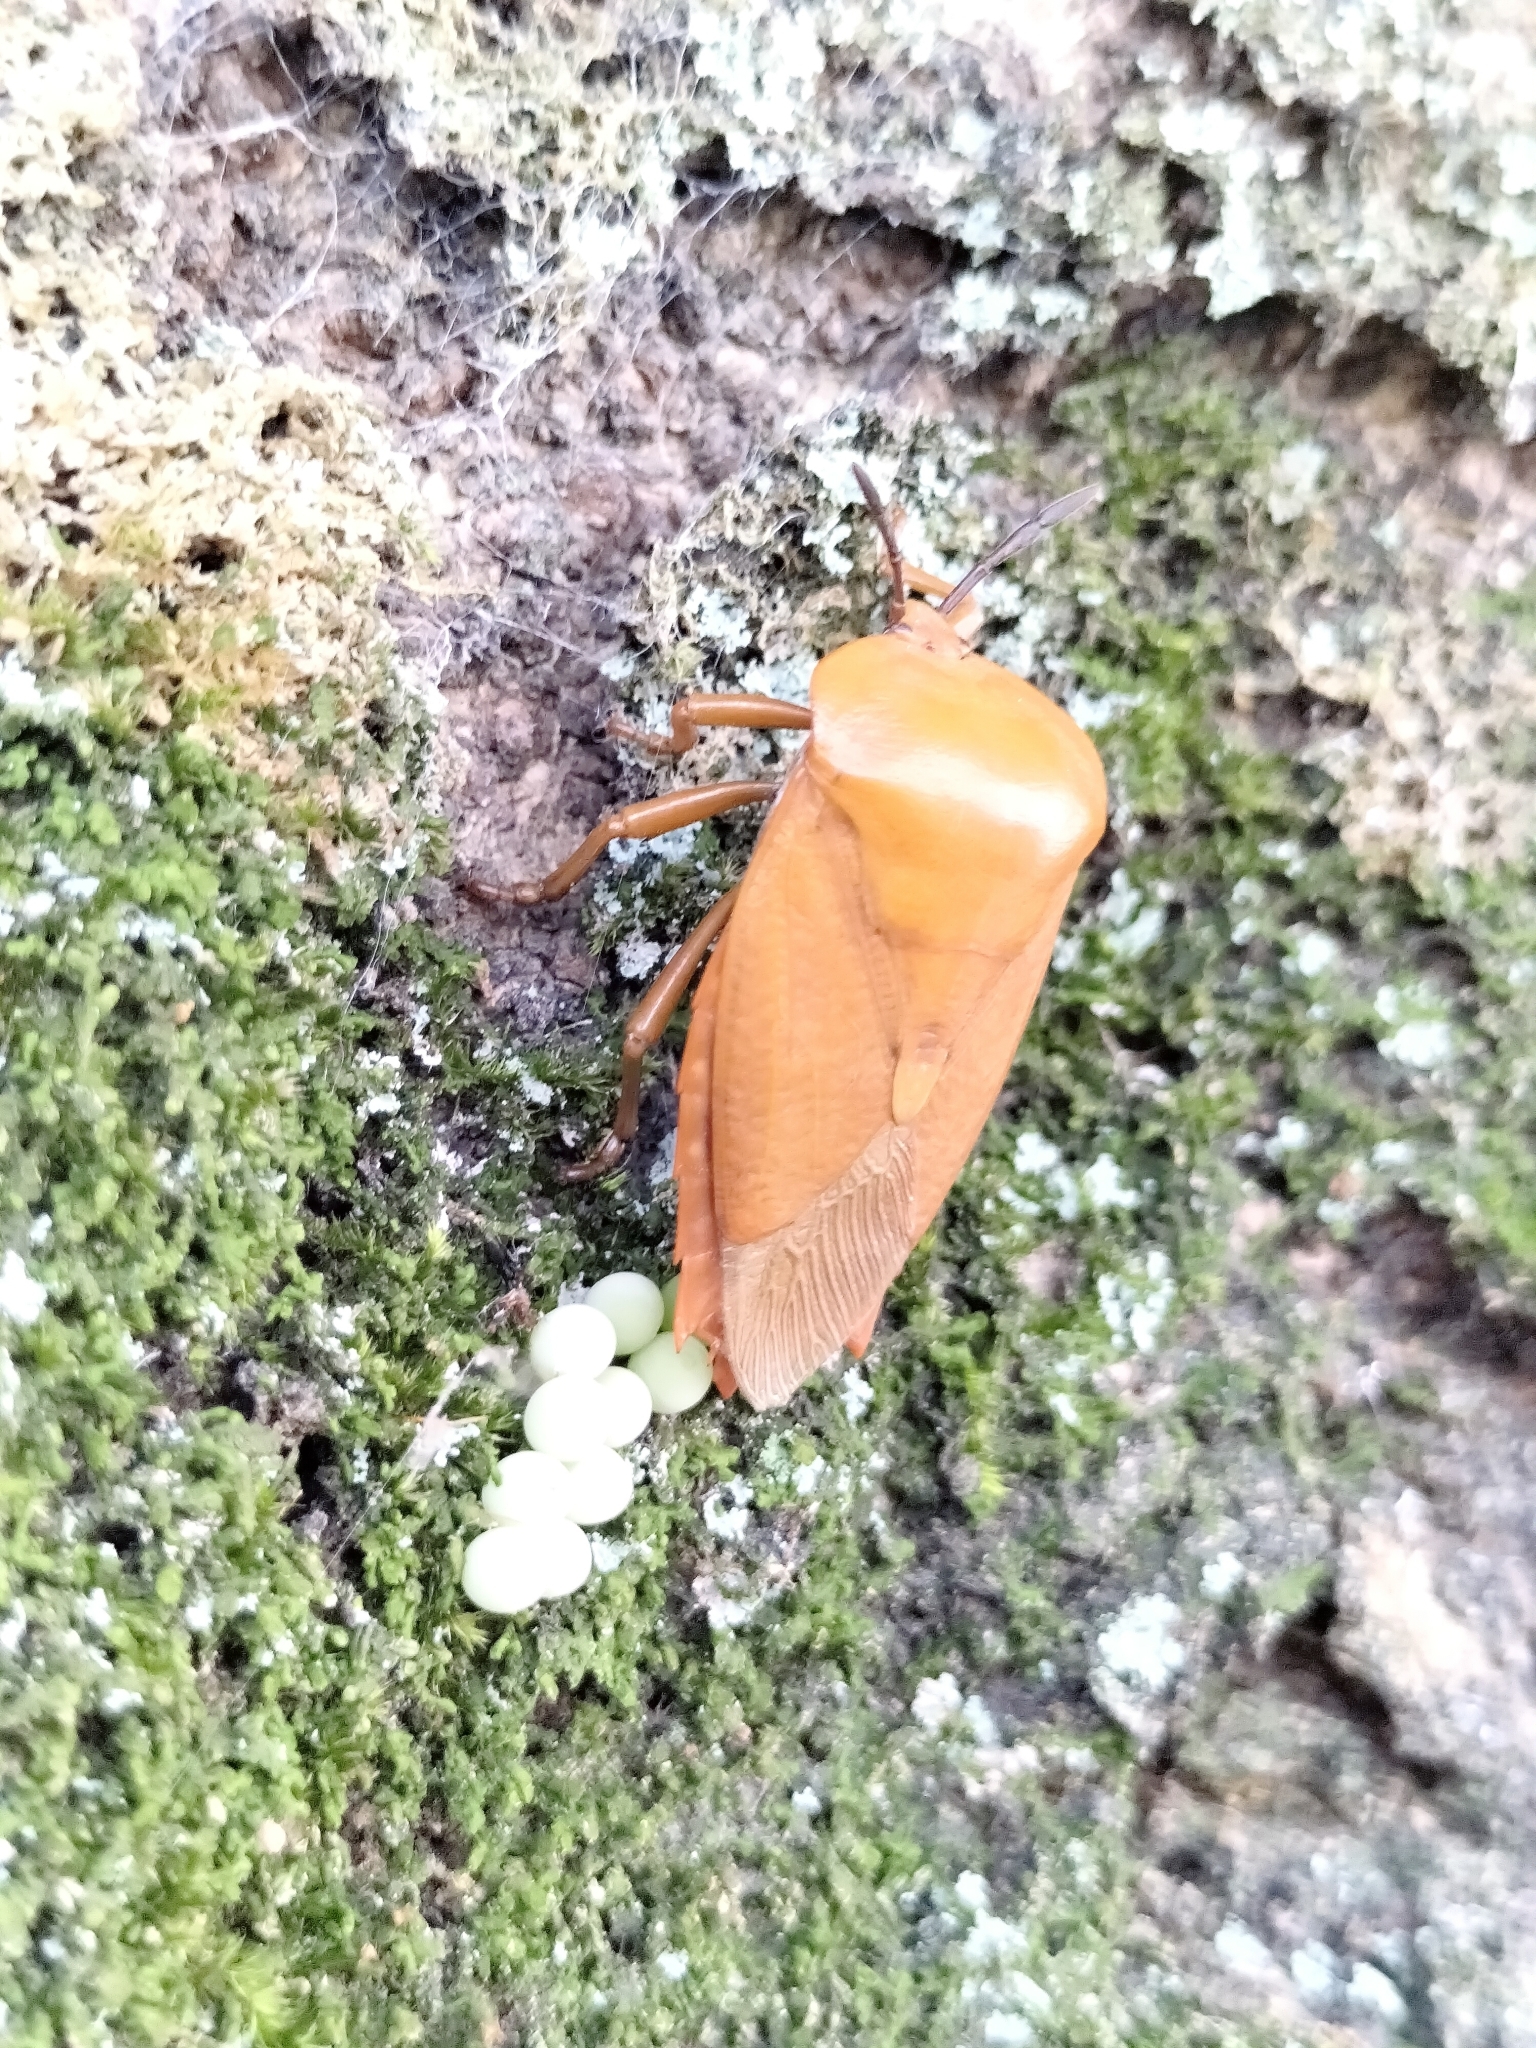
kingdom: Animalia
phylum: Arthropoda
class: Insecta
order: Hemiptera
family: Tessaratomidae
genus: Tessaratoma
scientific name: Tessaratoma papillosa
